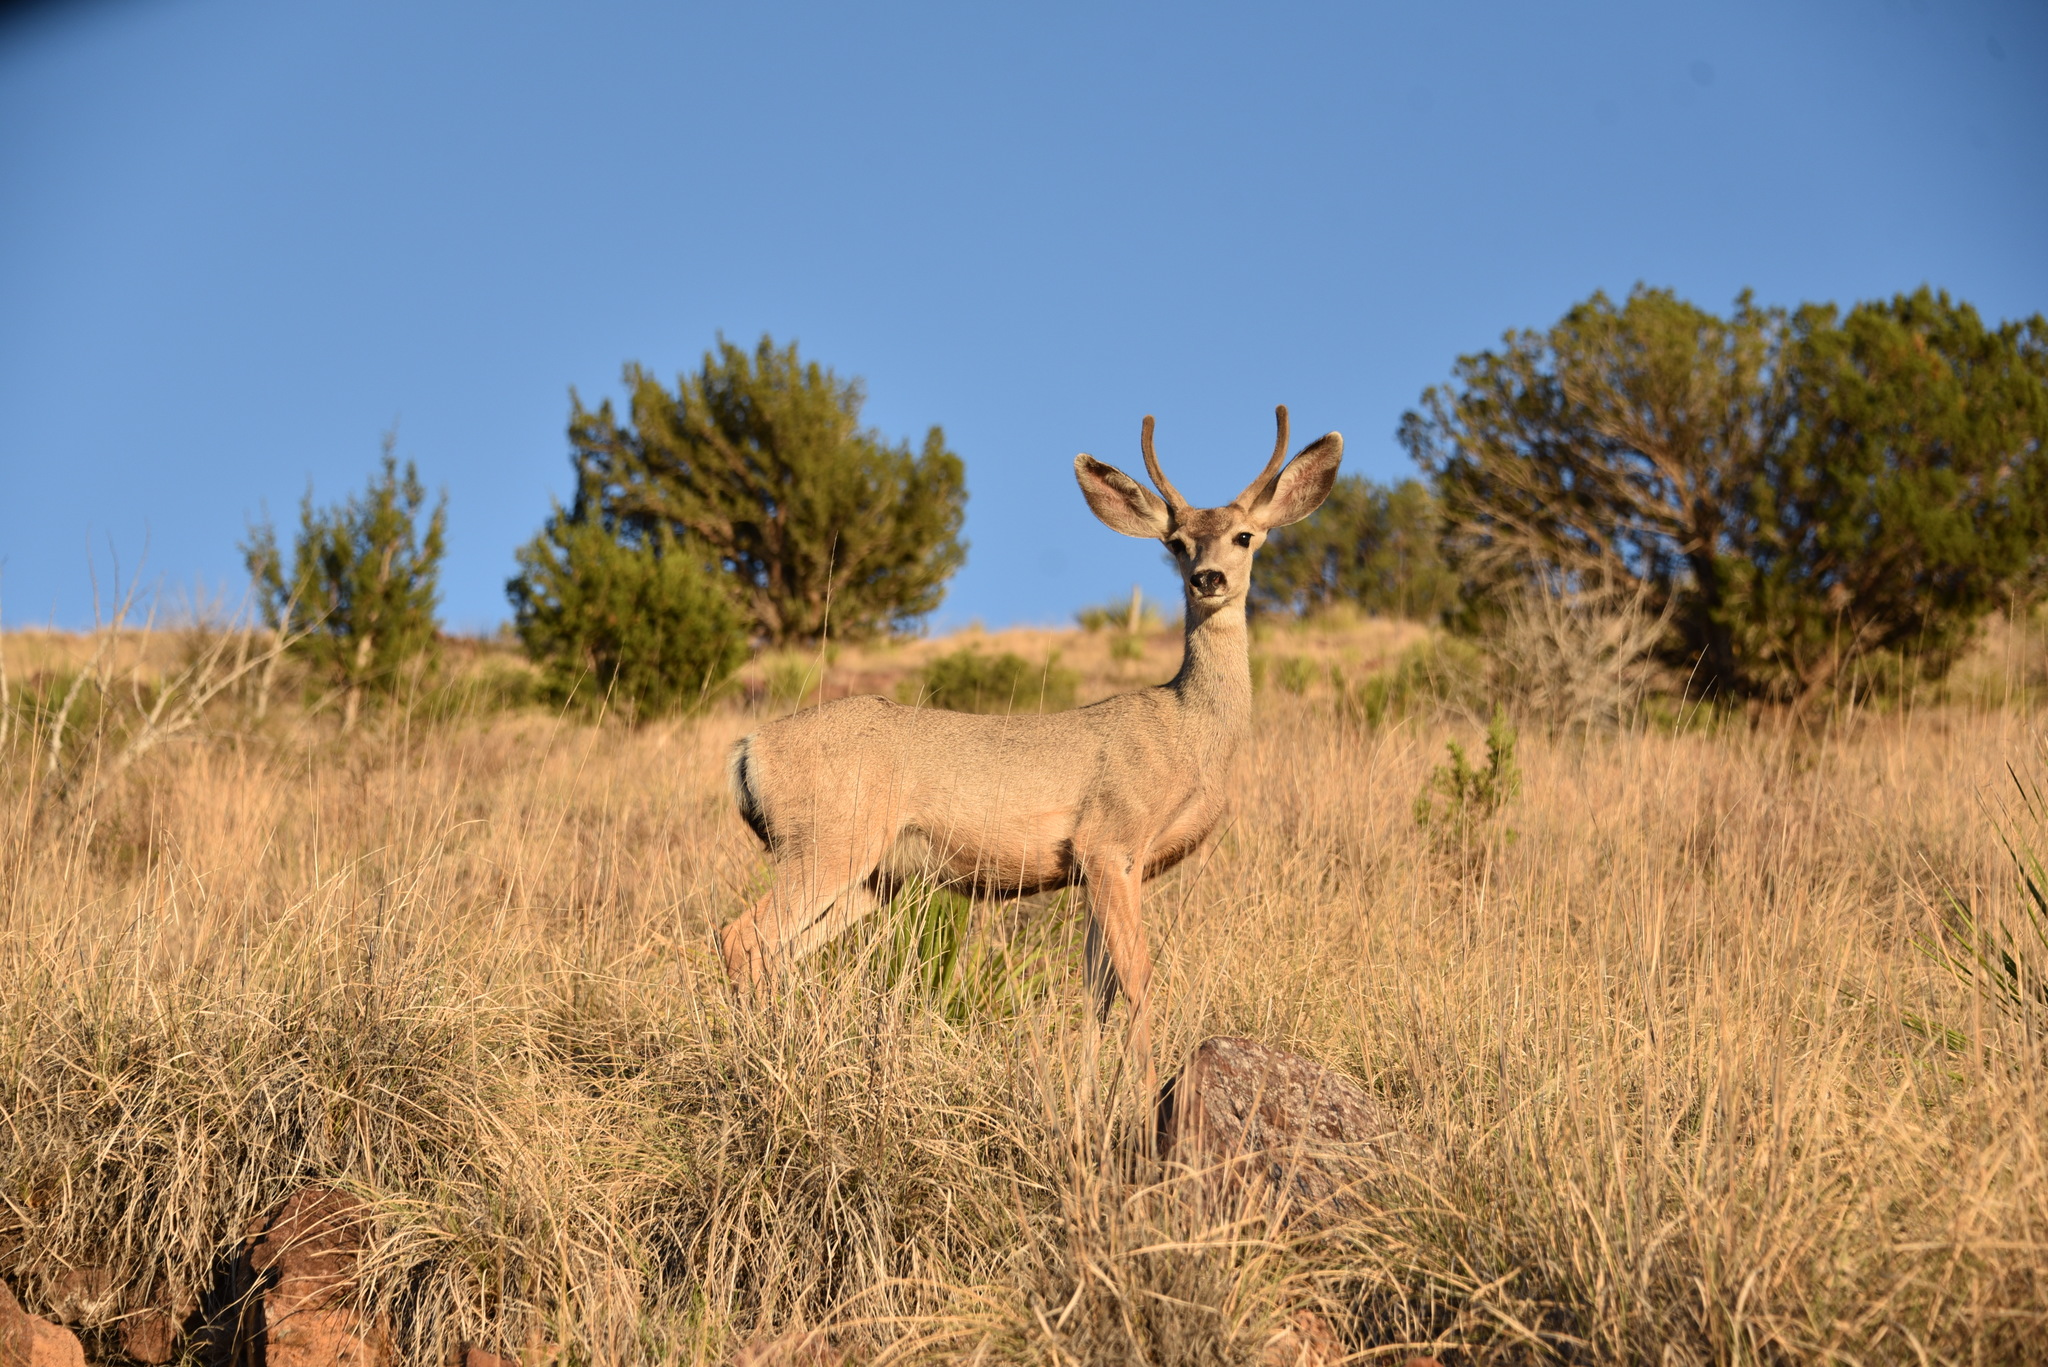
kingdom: Animalia
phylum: Chordata
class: Mammalia
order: Artiodactyla
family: Cervidae
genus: Odocoileus
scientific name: Odocoileus hemionus
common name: Mule deer
